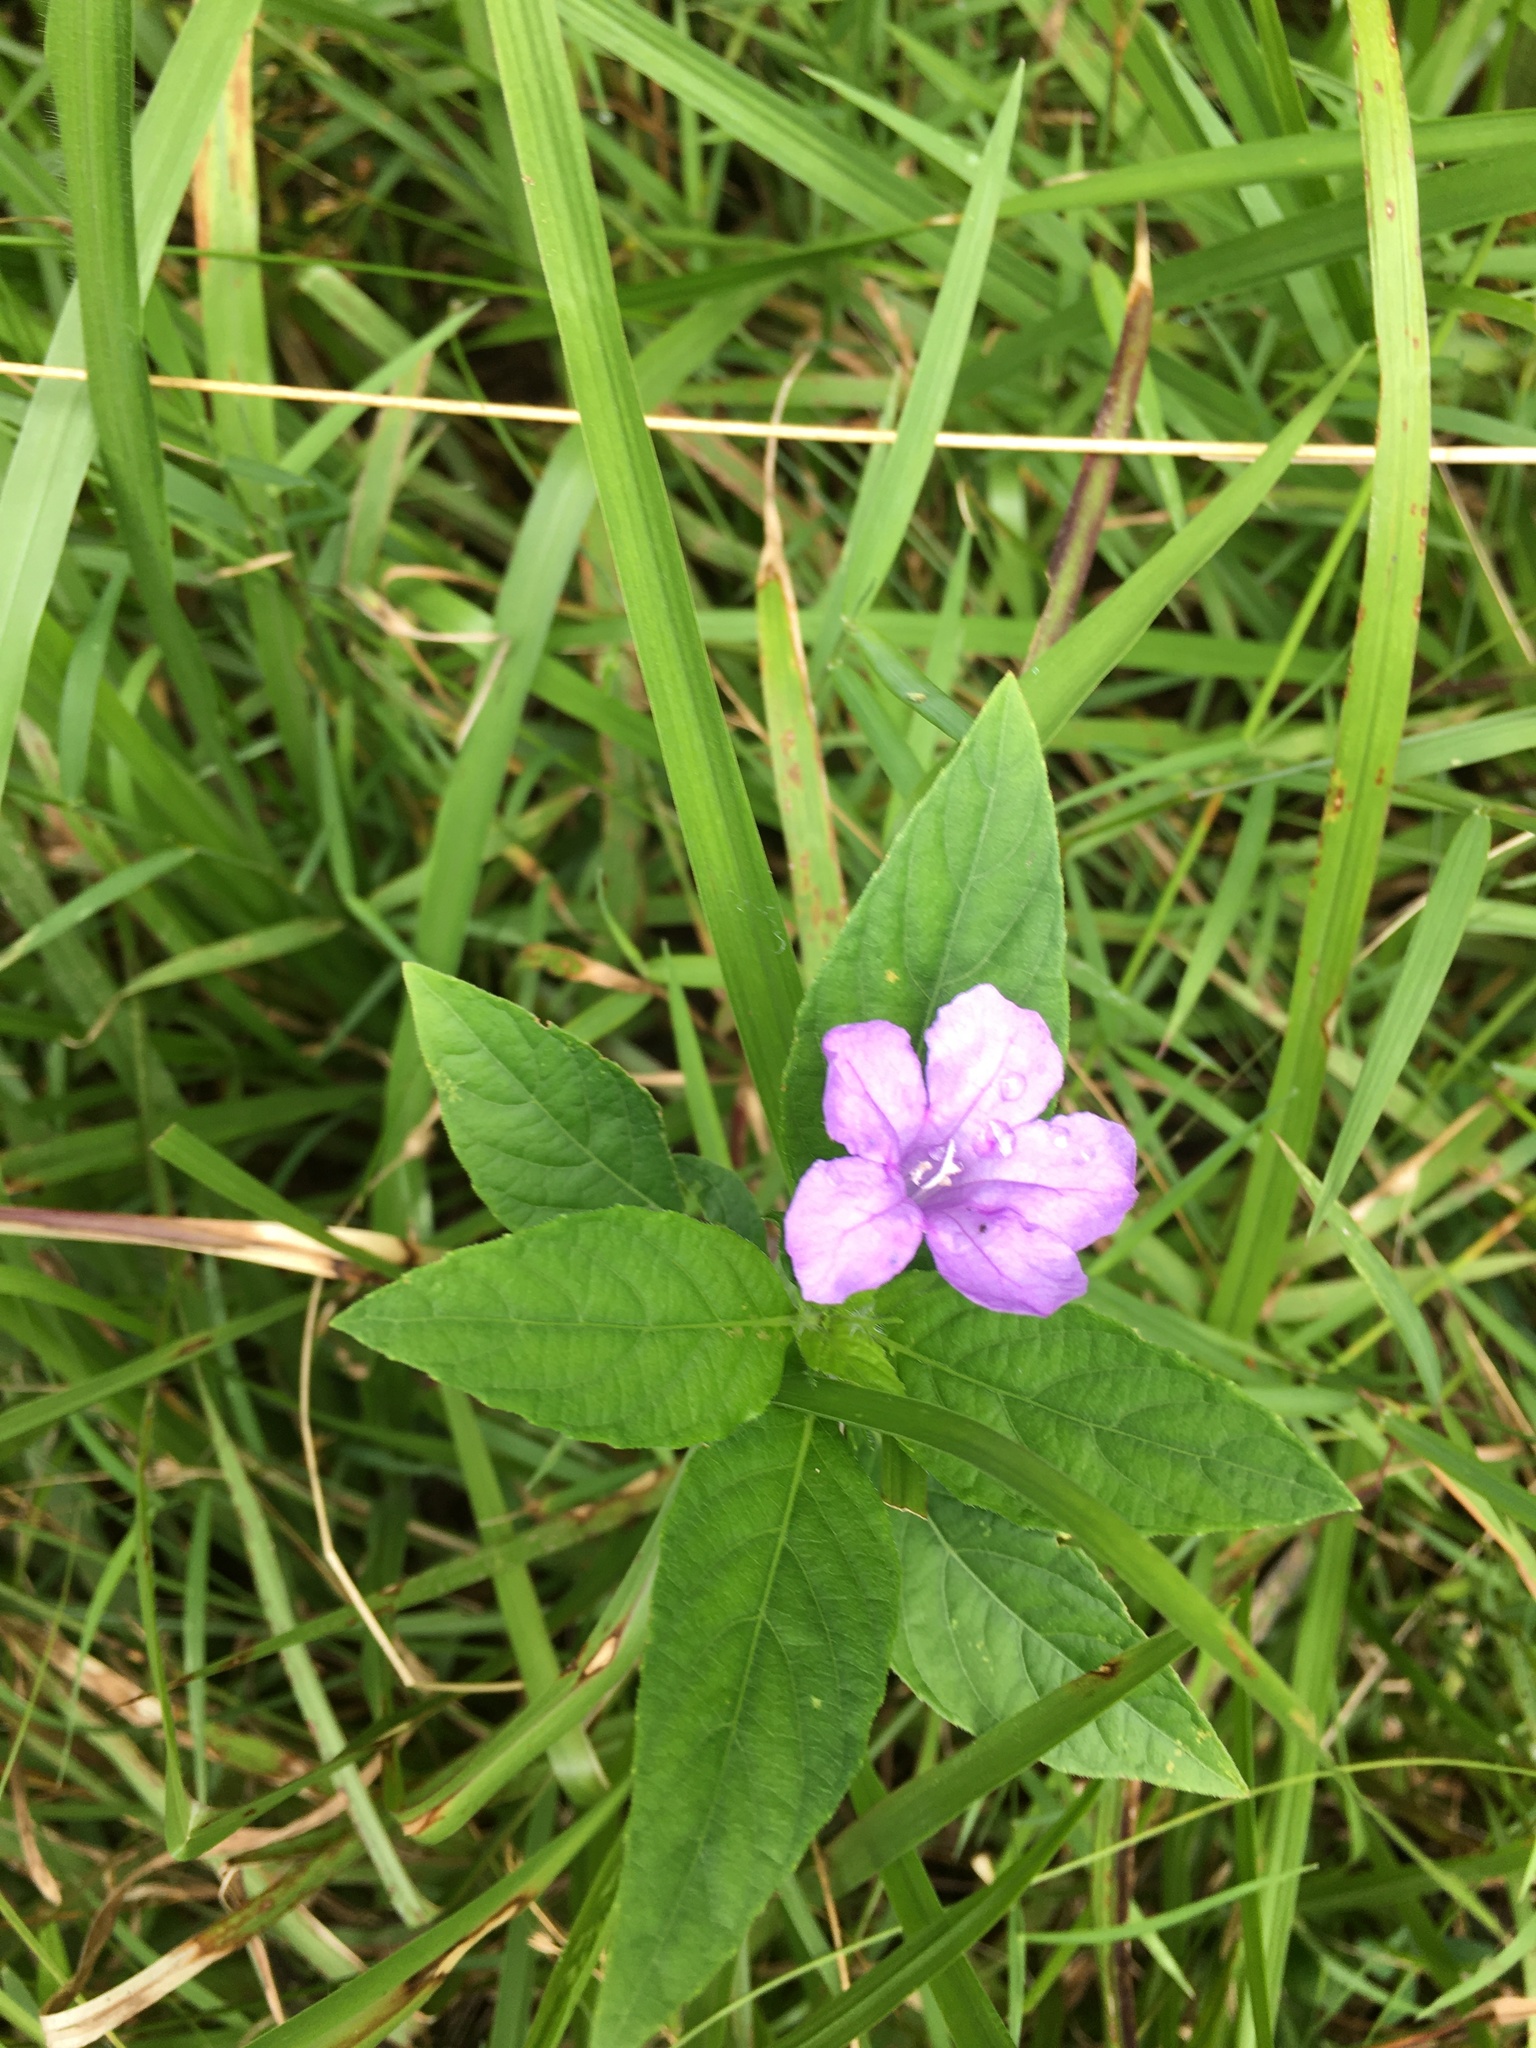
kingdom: Plantae
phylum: Tracheophyta
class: Magnoliopsida
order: Lamiales
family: Acanthaceae
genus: Ruellia
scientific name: Ruellia caroliniensis
